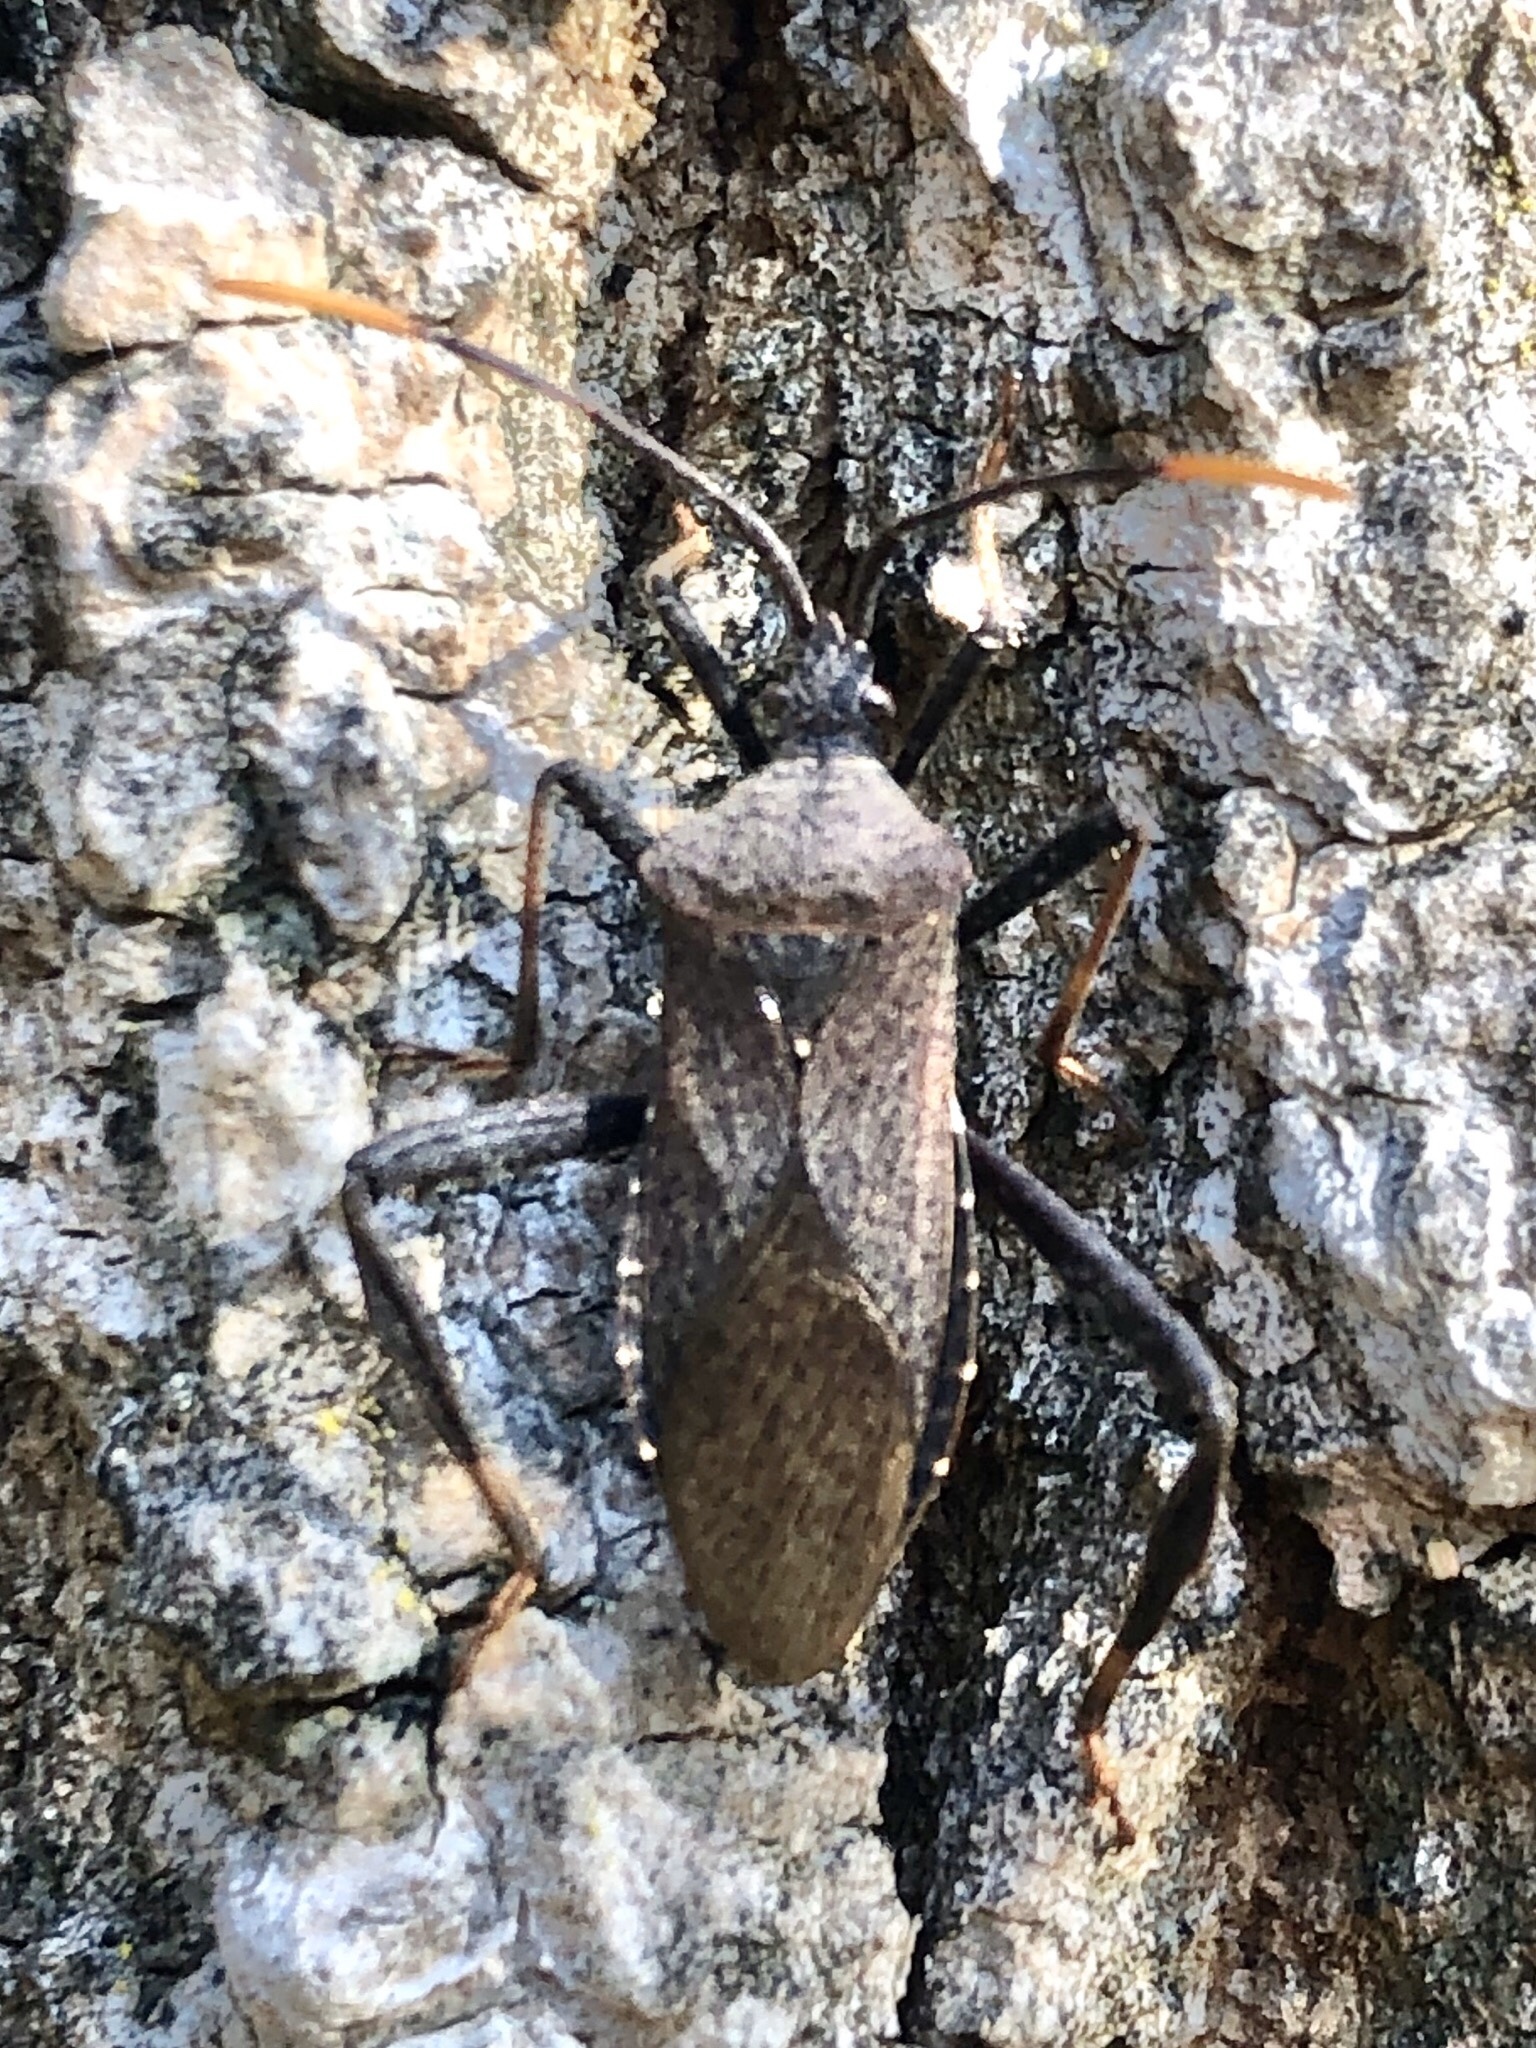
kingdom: Animalia
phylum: Arthropoda
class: Insecta
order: Hemiptera
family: Coreidae
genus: Acanthocephala
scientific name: Acanthocephala terminalis
